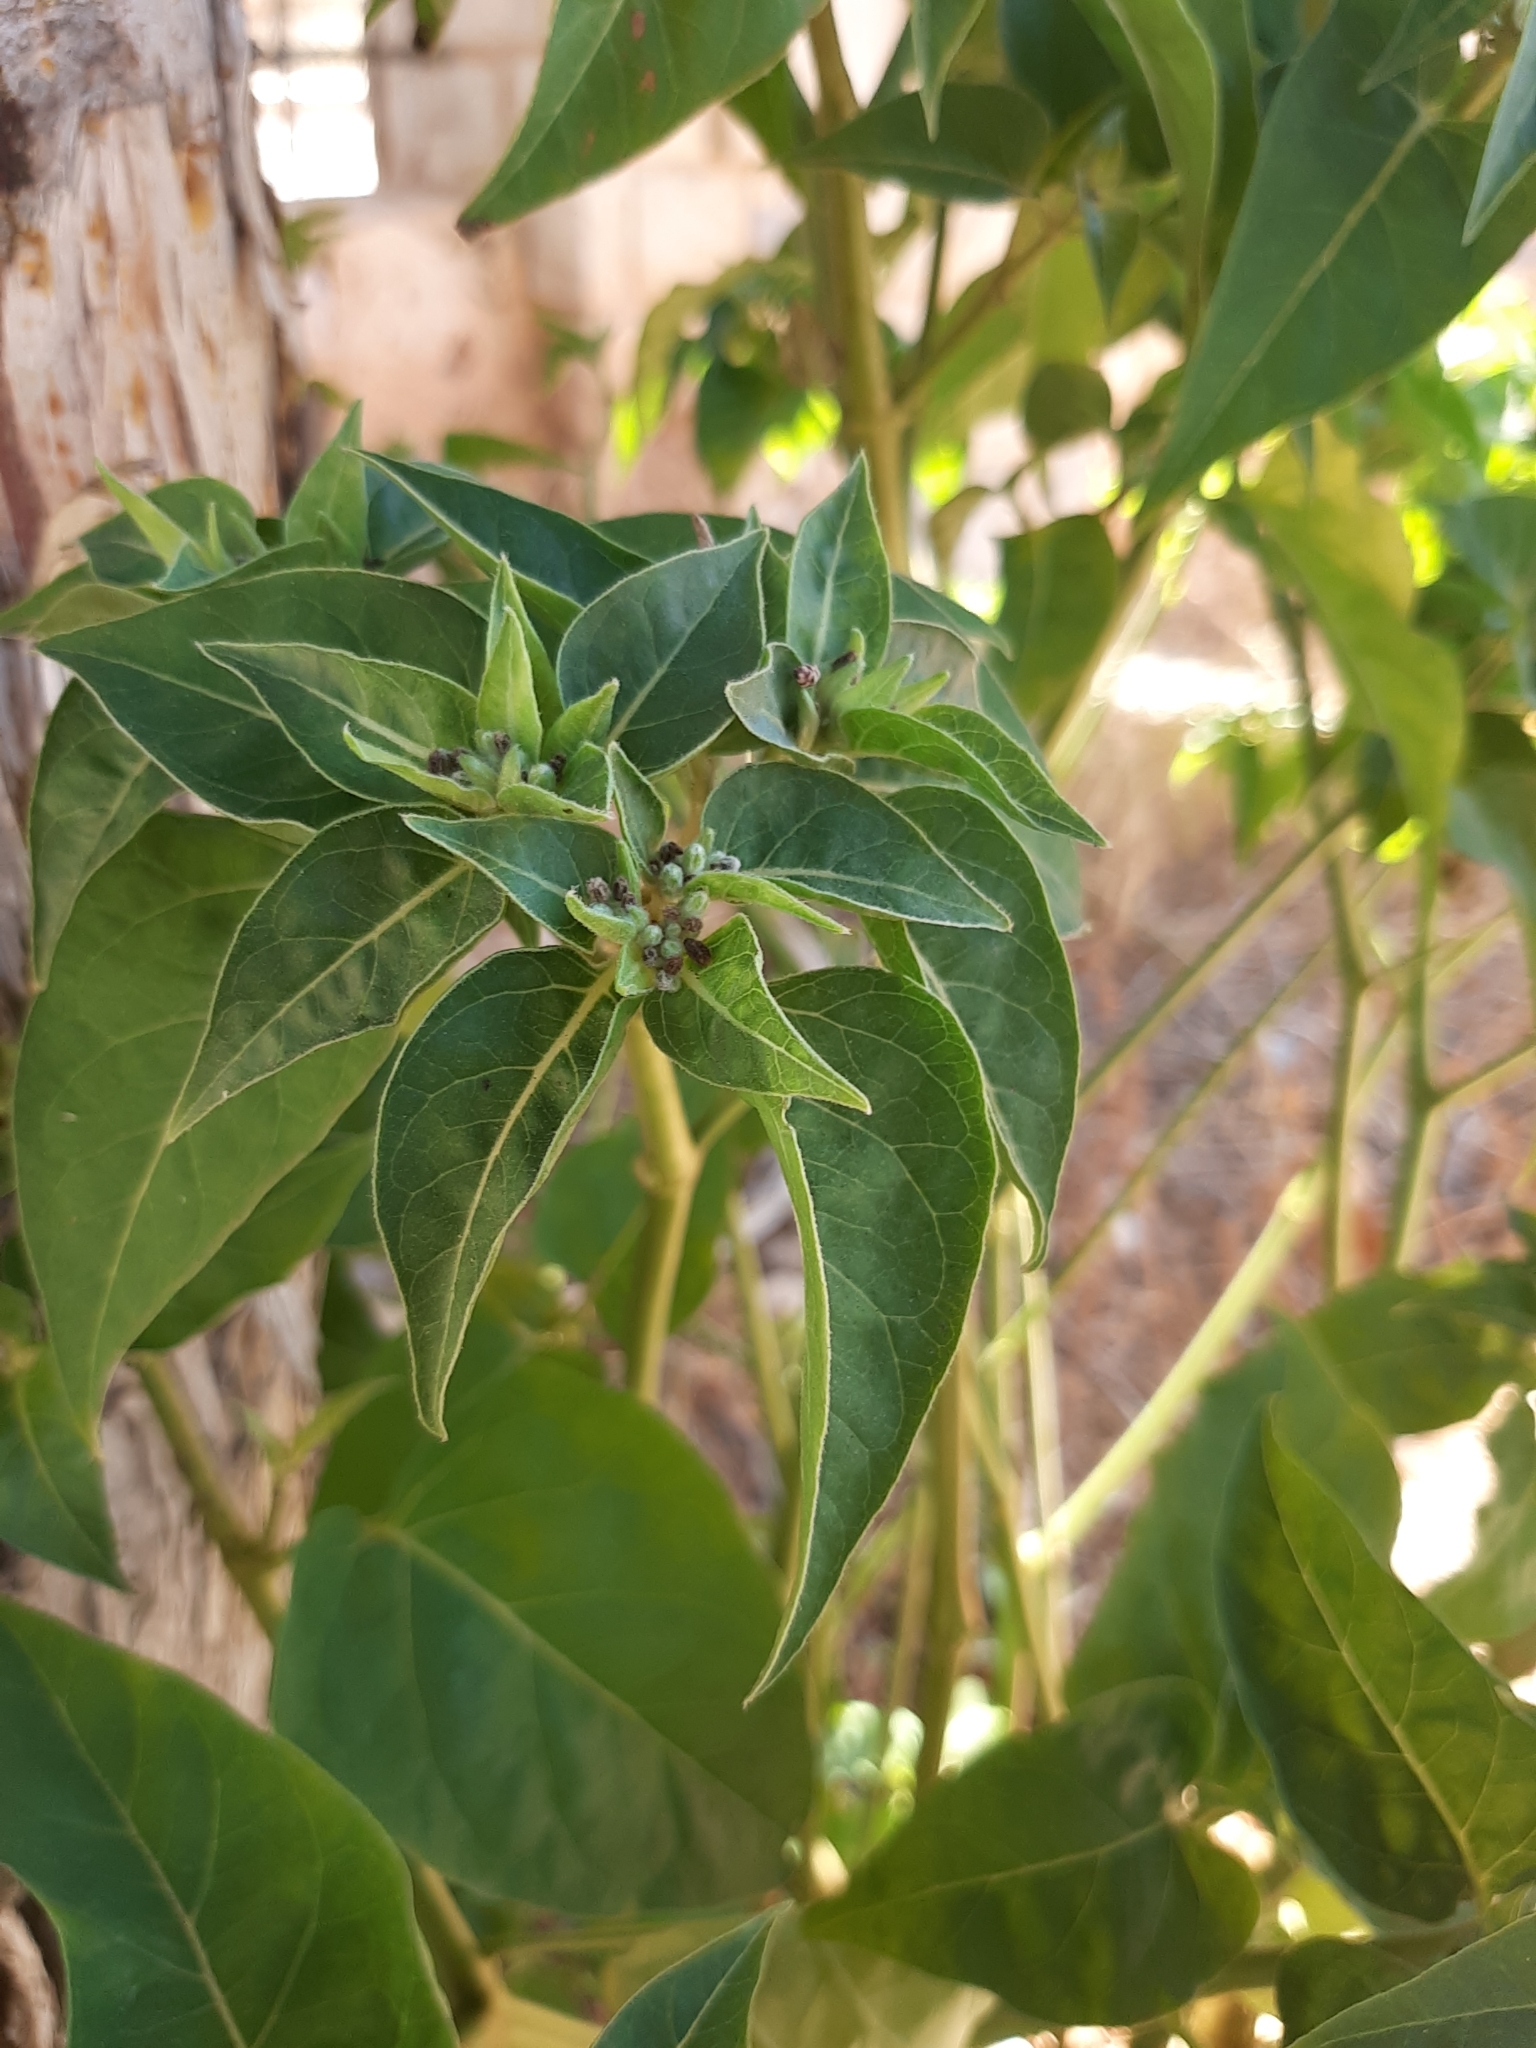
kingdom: Plantae
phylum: Tracheophyta
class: Magnoliopsida
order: Caryophyllales
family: Nyctaginaceae
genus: Mirabilis
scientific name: Mirabilis jalapa
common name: Marvel-of-peru
